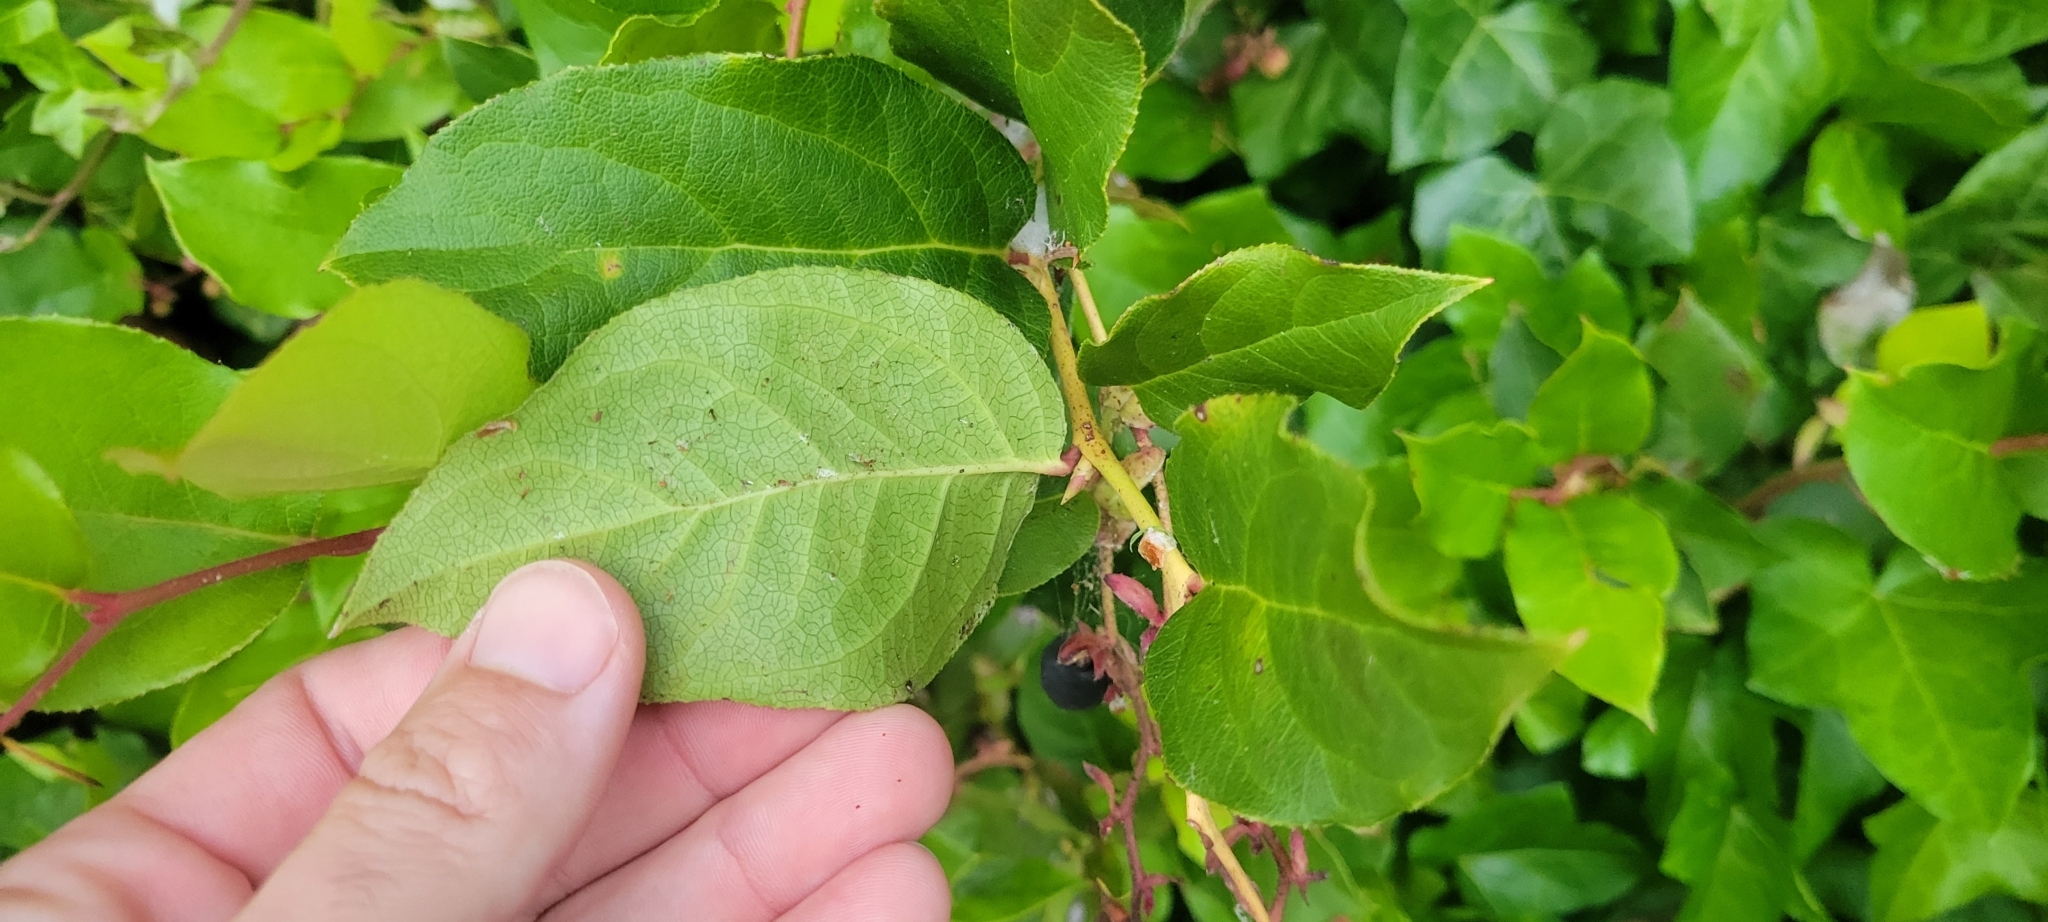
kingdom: Plantae
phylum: Tracheophyta
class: Magnoliopsida
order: Ericales
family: Ericaceae
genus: Gaultheria
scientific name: Gaultheria shallon
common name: Shallon
